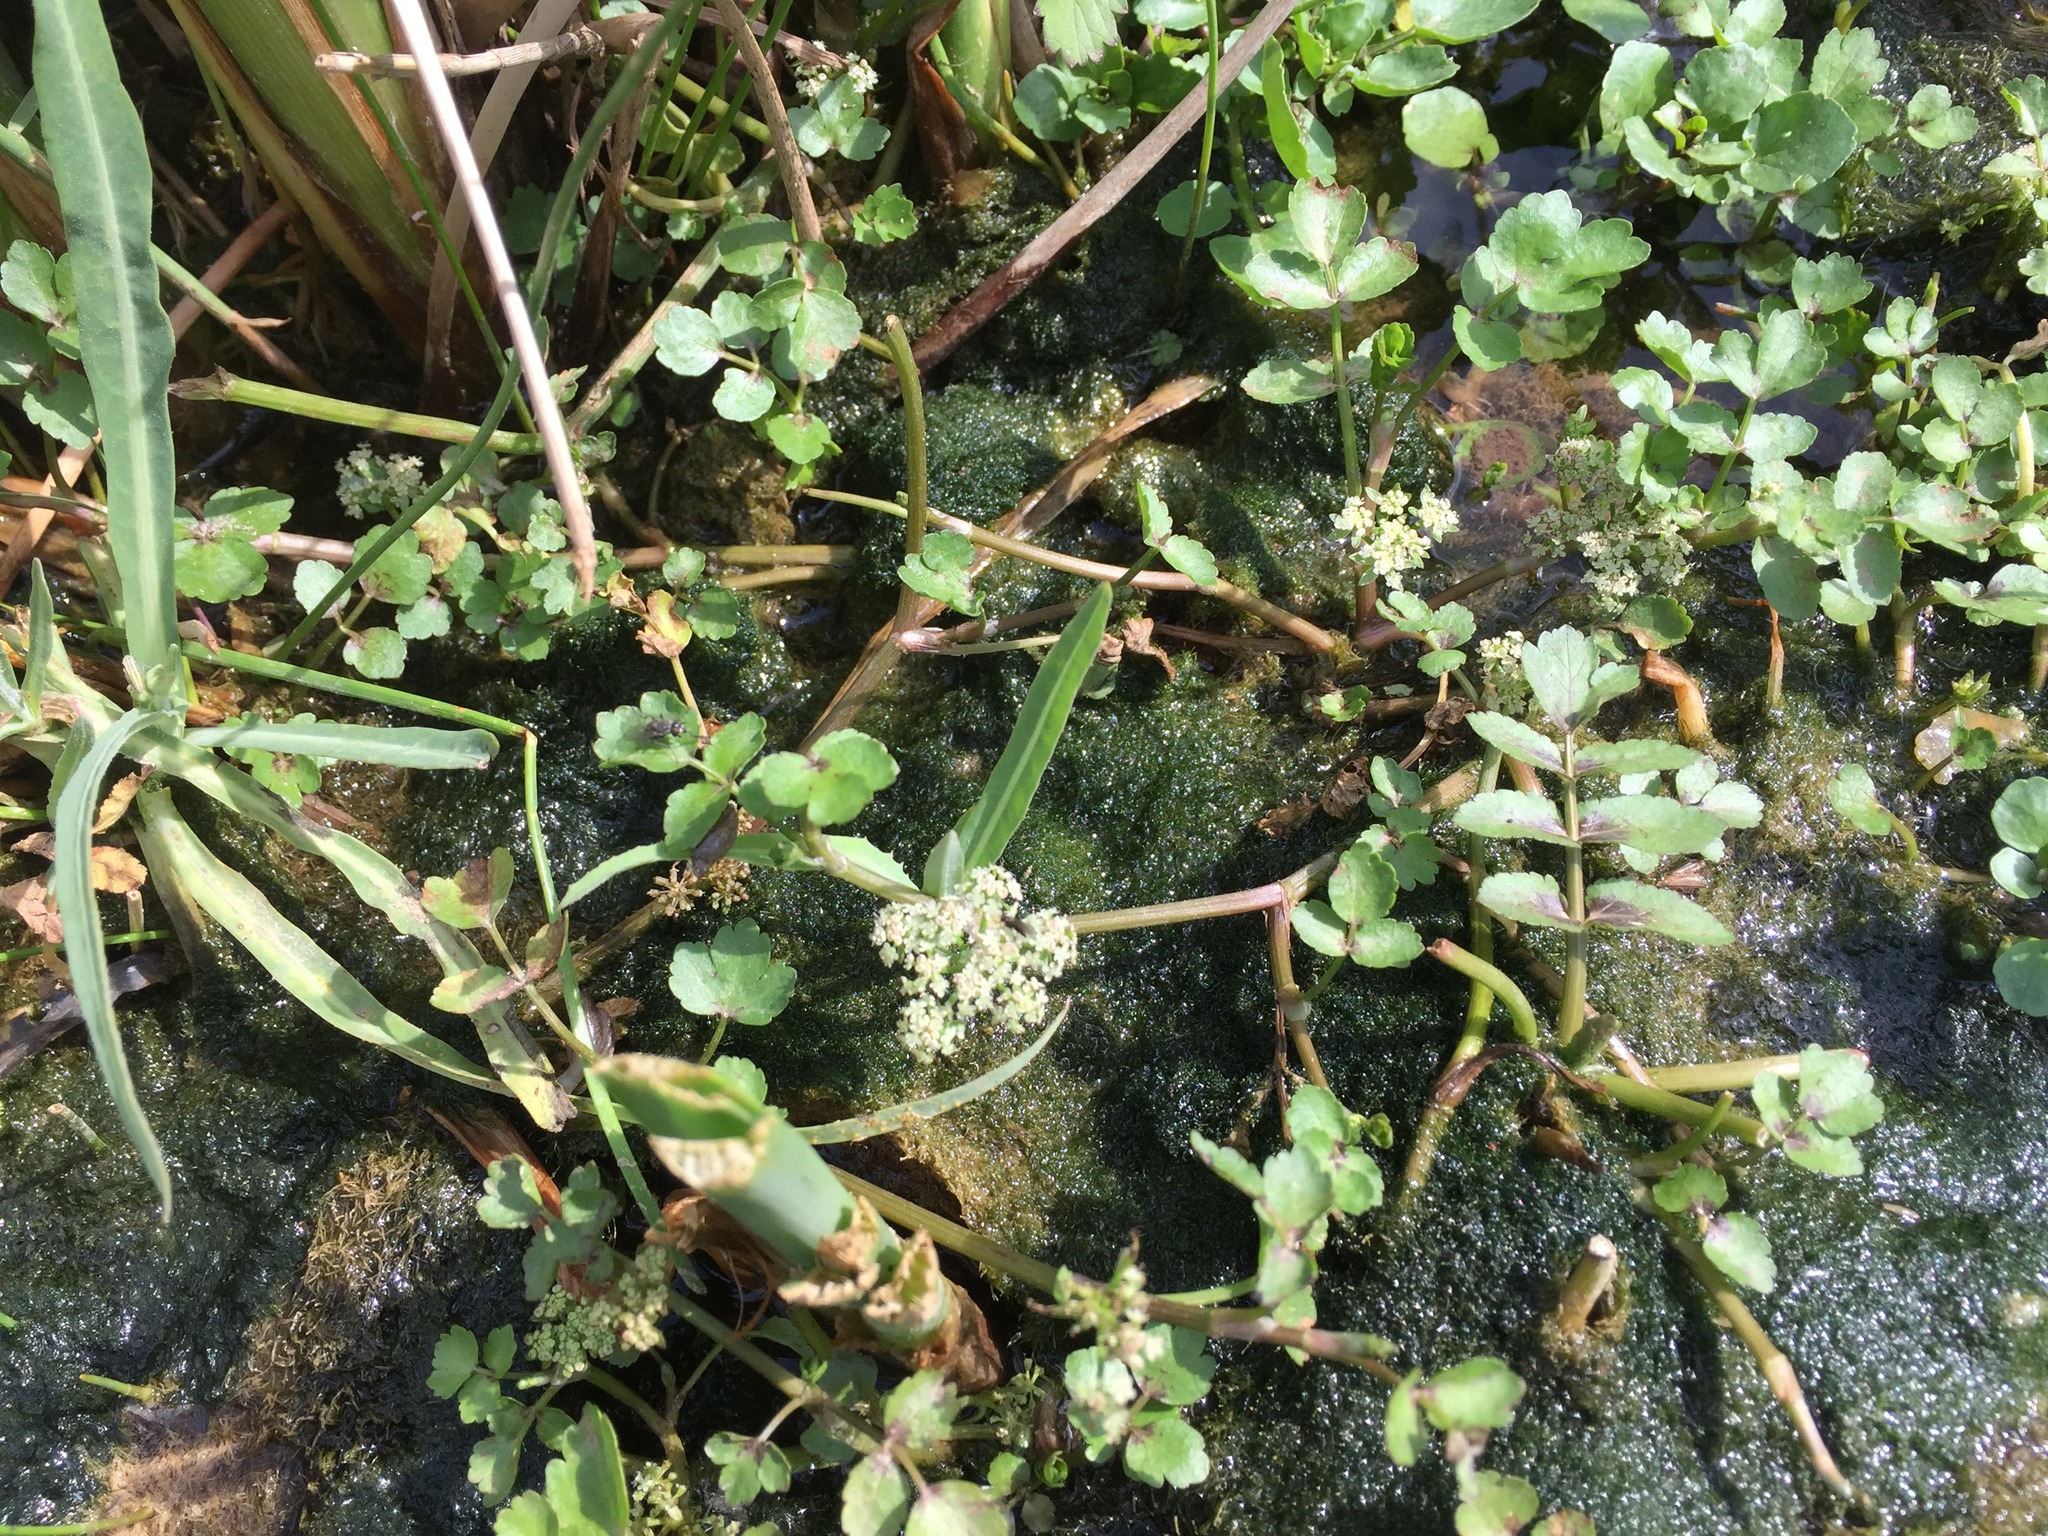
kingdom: Plantae
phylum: Tracheophyta
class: Magnoliopsida
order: Apiales
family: Apiaceae
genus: Helosciadium
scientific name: Helosciadium nodiflorum
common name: Fool's-watercress
